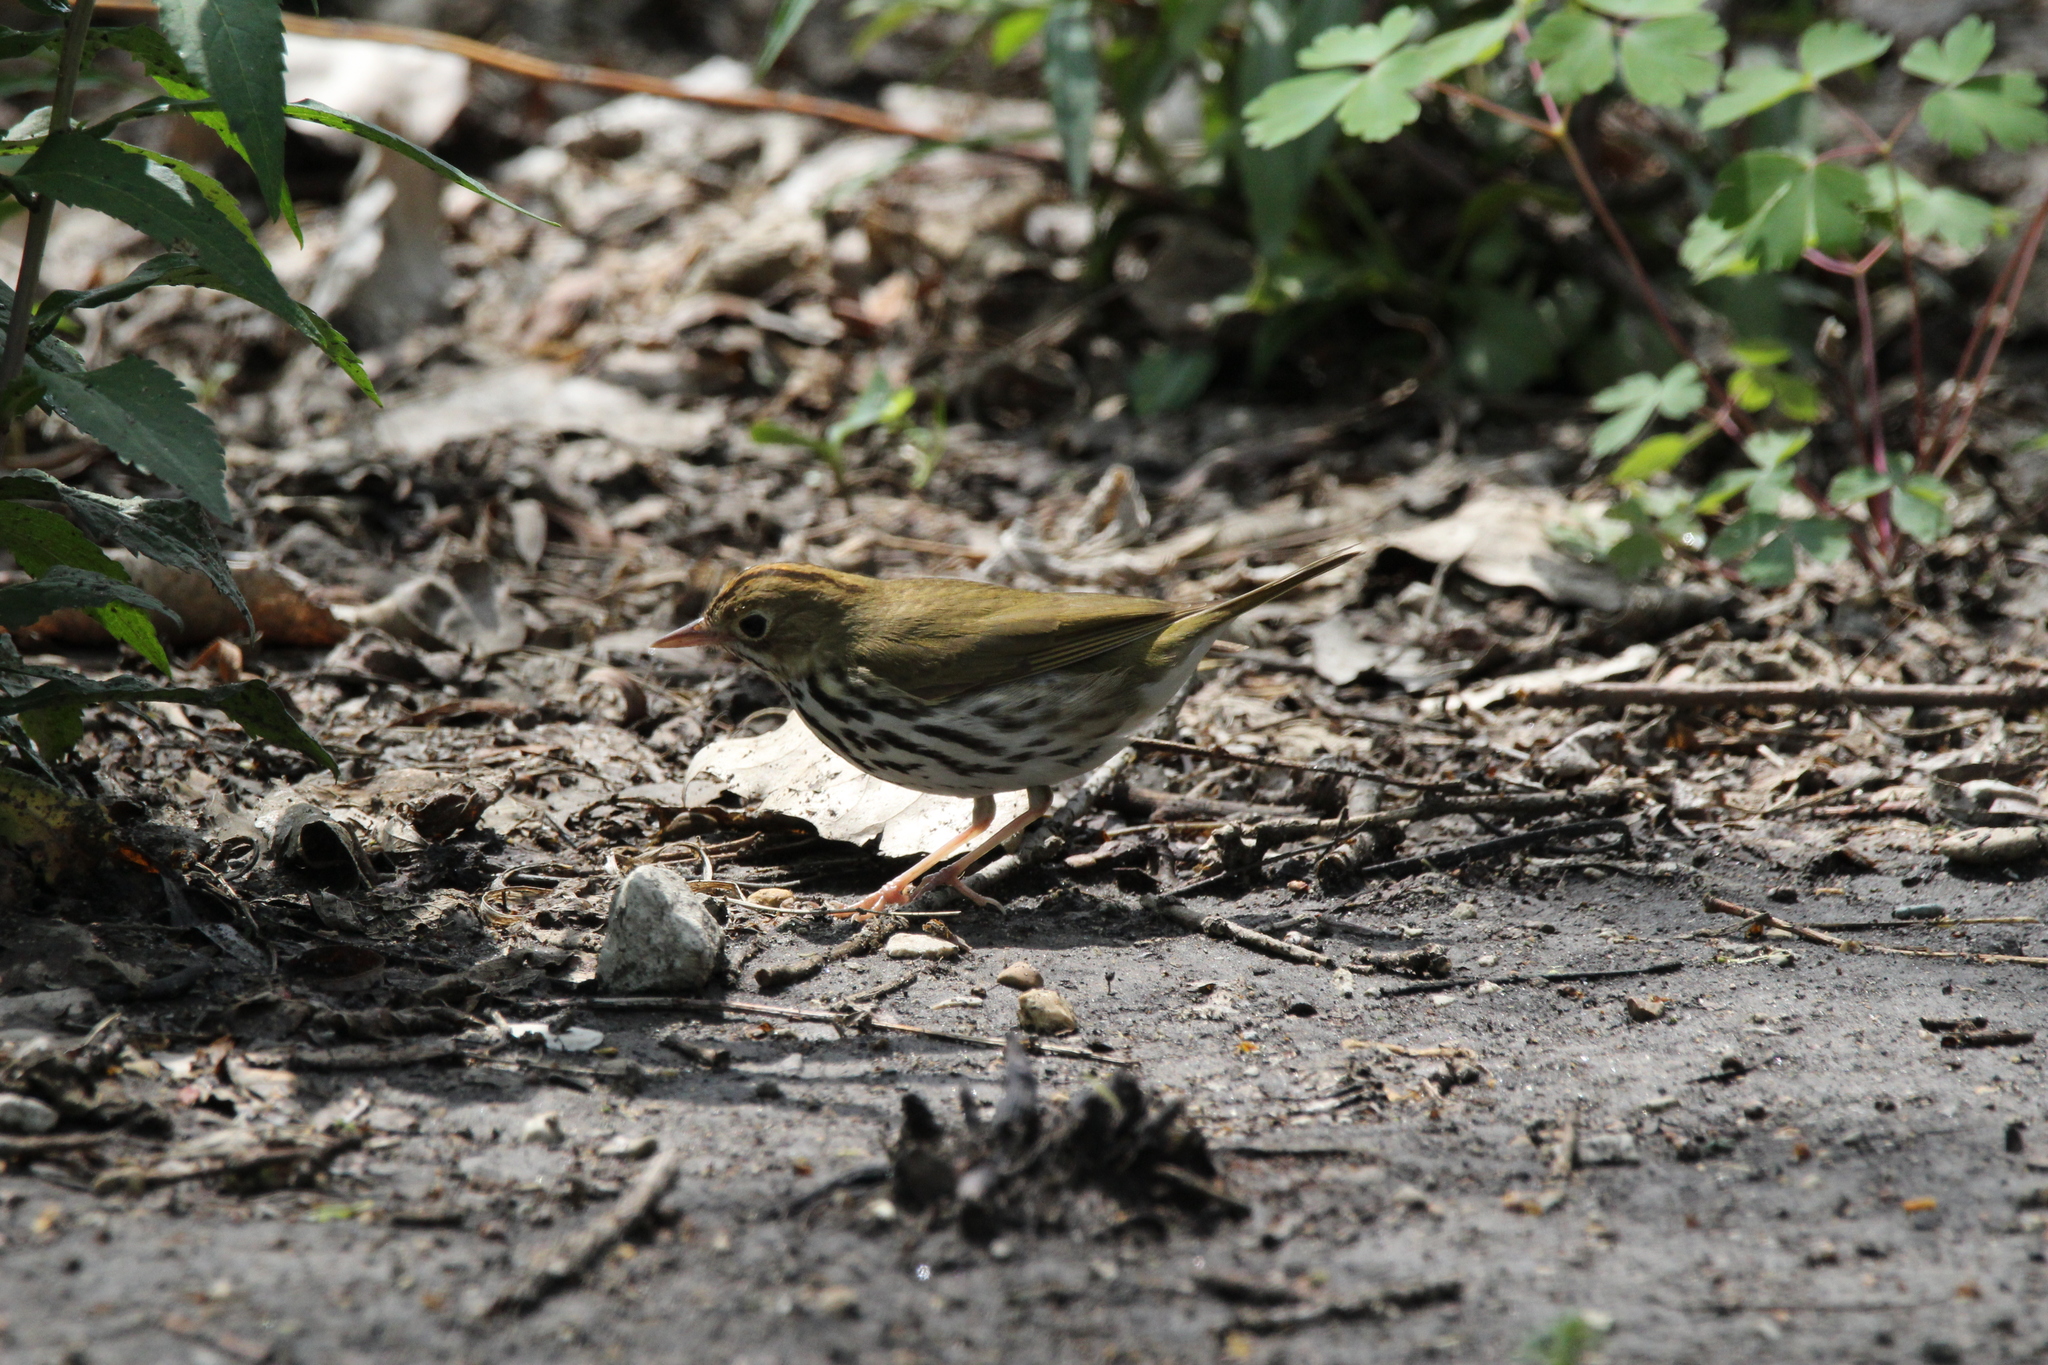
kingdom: Animalia
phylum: Chordata
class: Aves
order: Passeriformes
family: Parulidae
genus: Seiurus
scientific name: Seiurus aurocapilla
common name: Ovenbird
